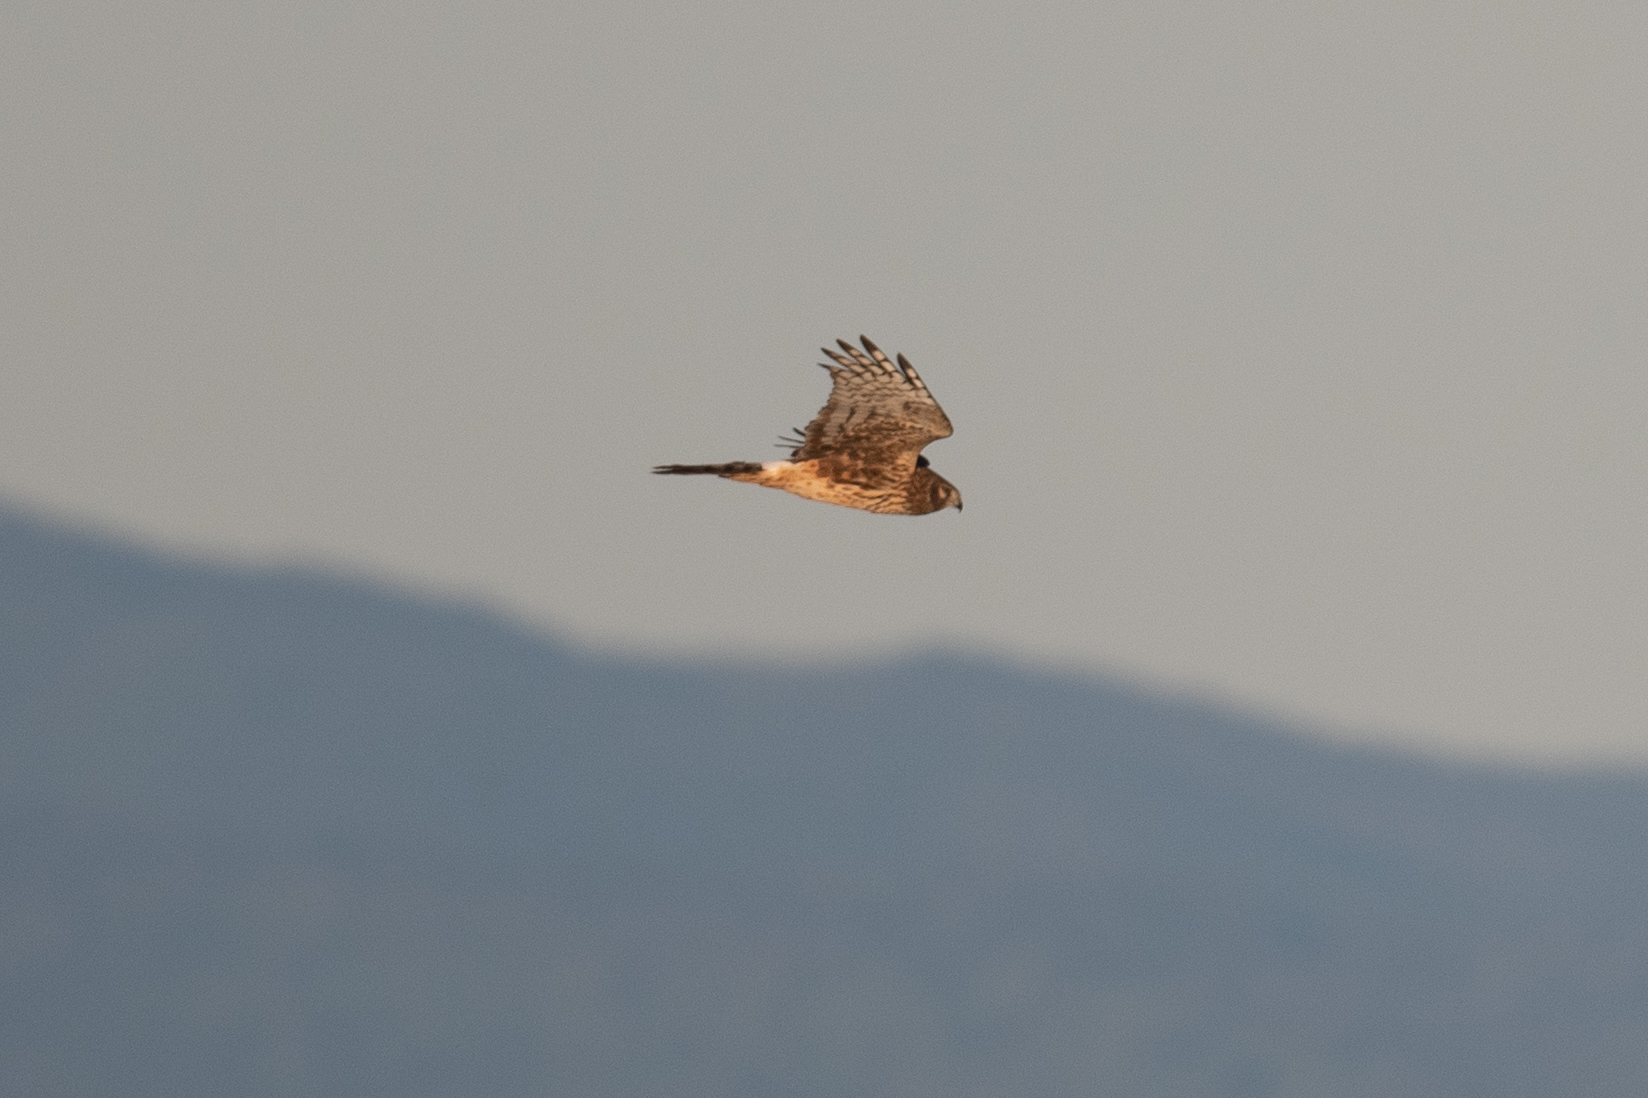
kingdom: Animalia
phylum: Chordata
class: Aves
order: Accipitriformes
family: Accipitridae
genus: Circus
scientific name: Circus cyaneus
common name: Hen harrier
